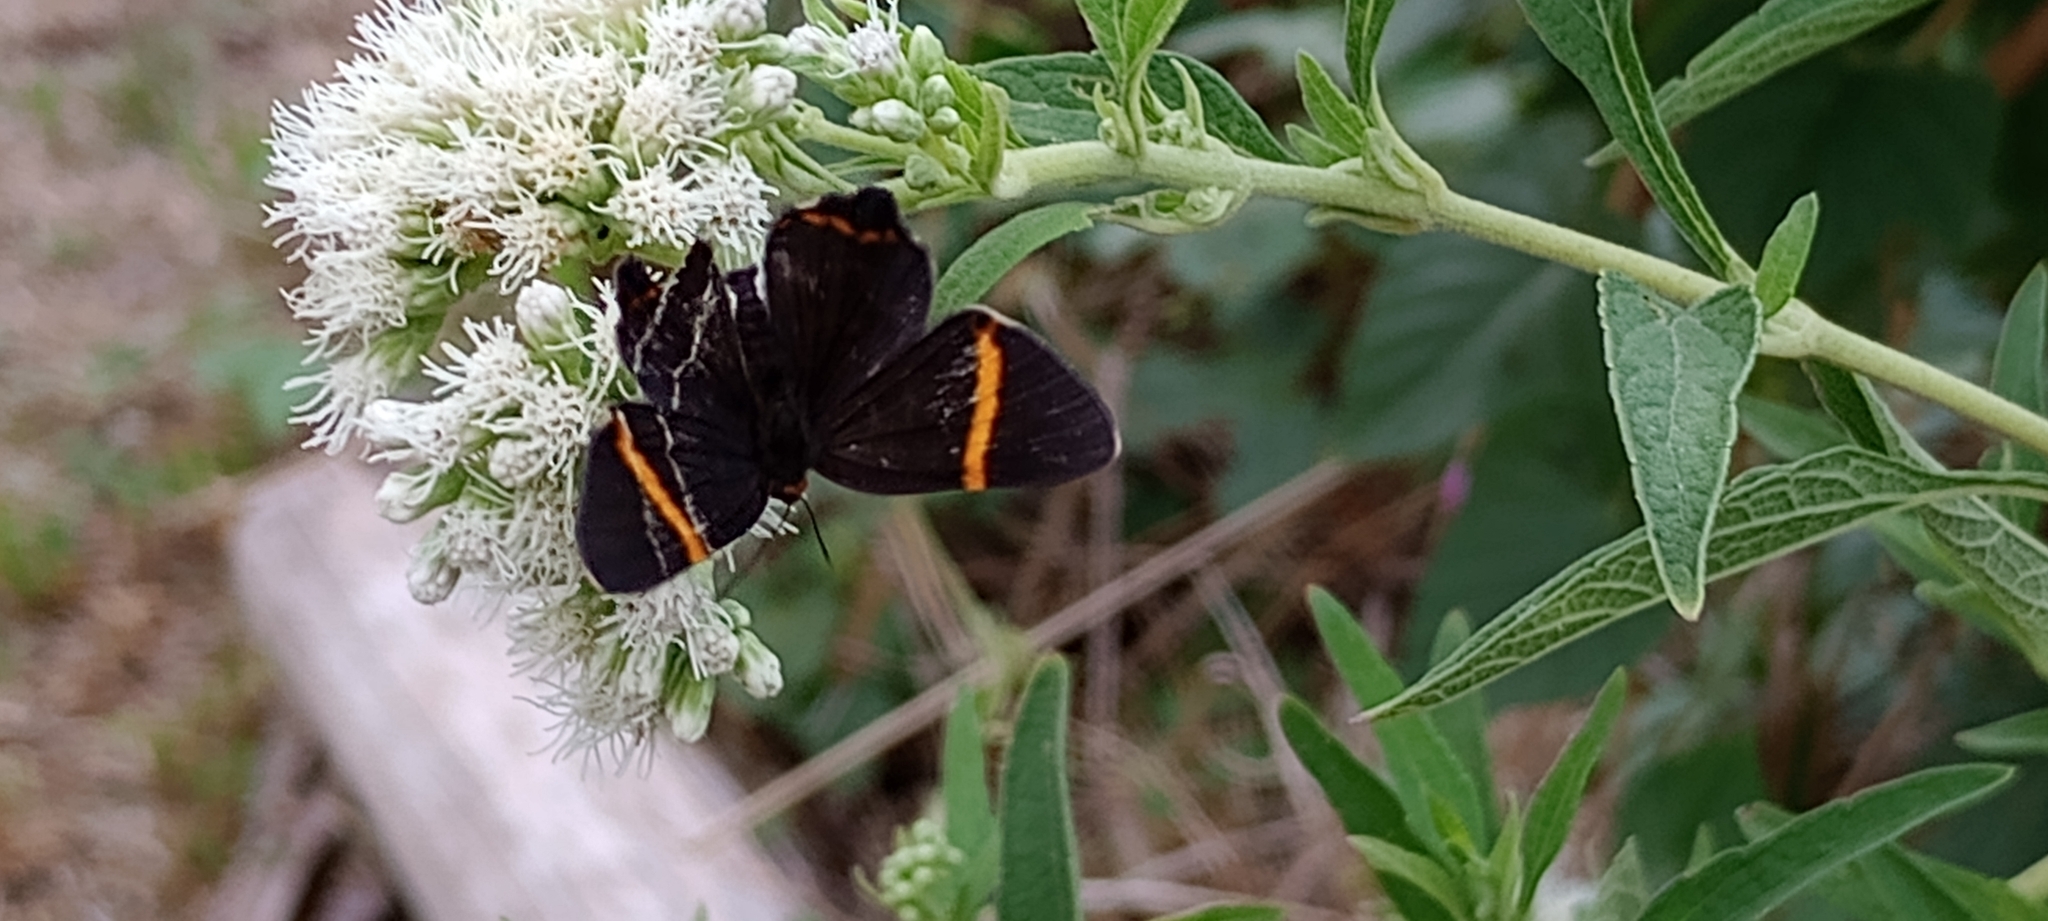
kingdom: Animalia
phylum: Arthropoda
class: Insecta
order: Lepidoptera
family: Riodinidae
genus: Riodina
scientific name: Riodina lysippoides
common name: Little dancer metalmark
